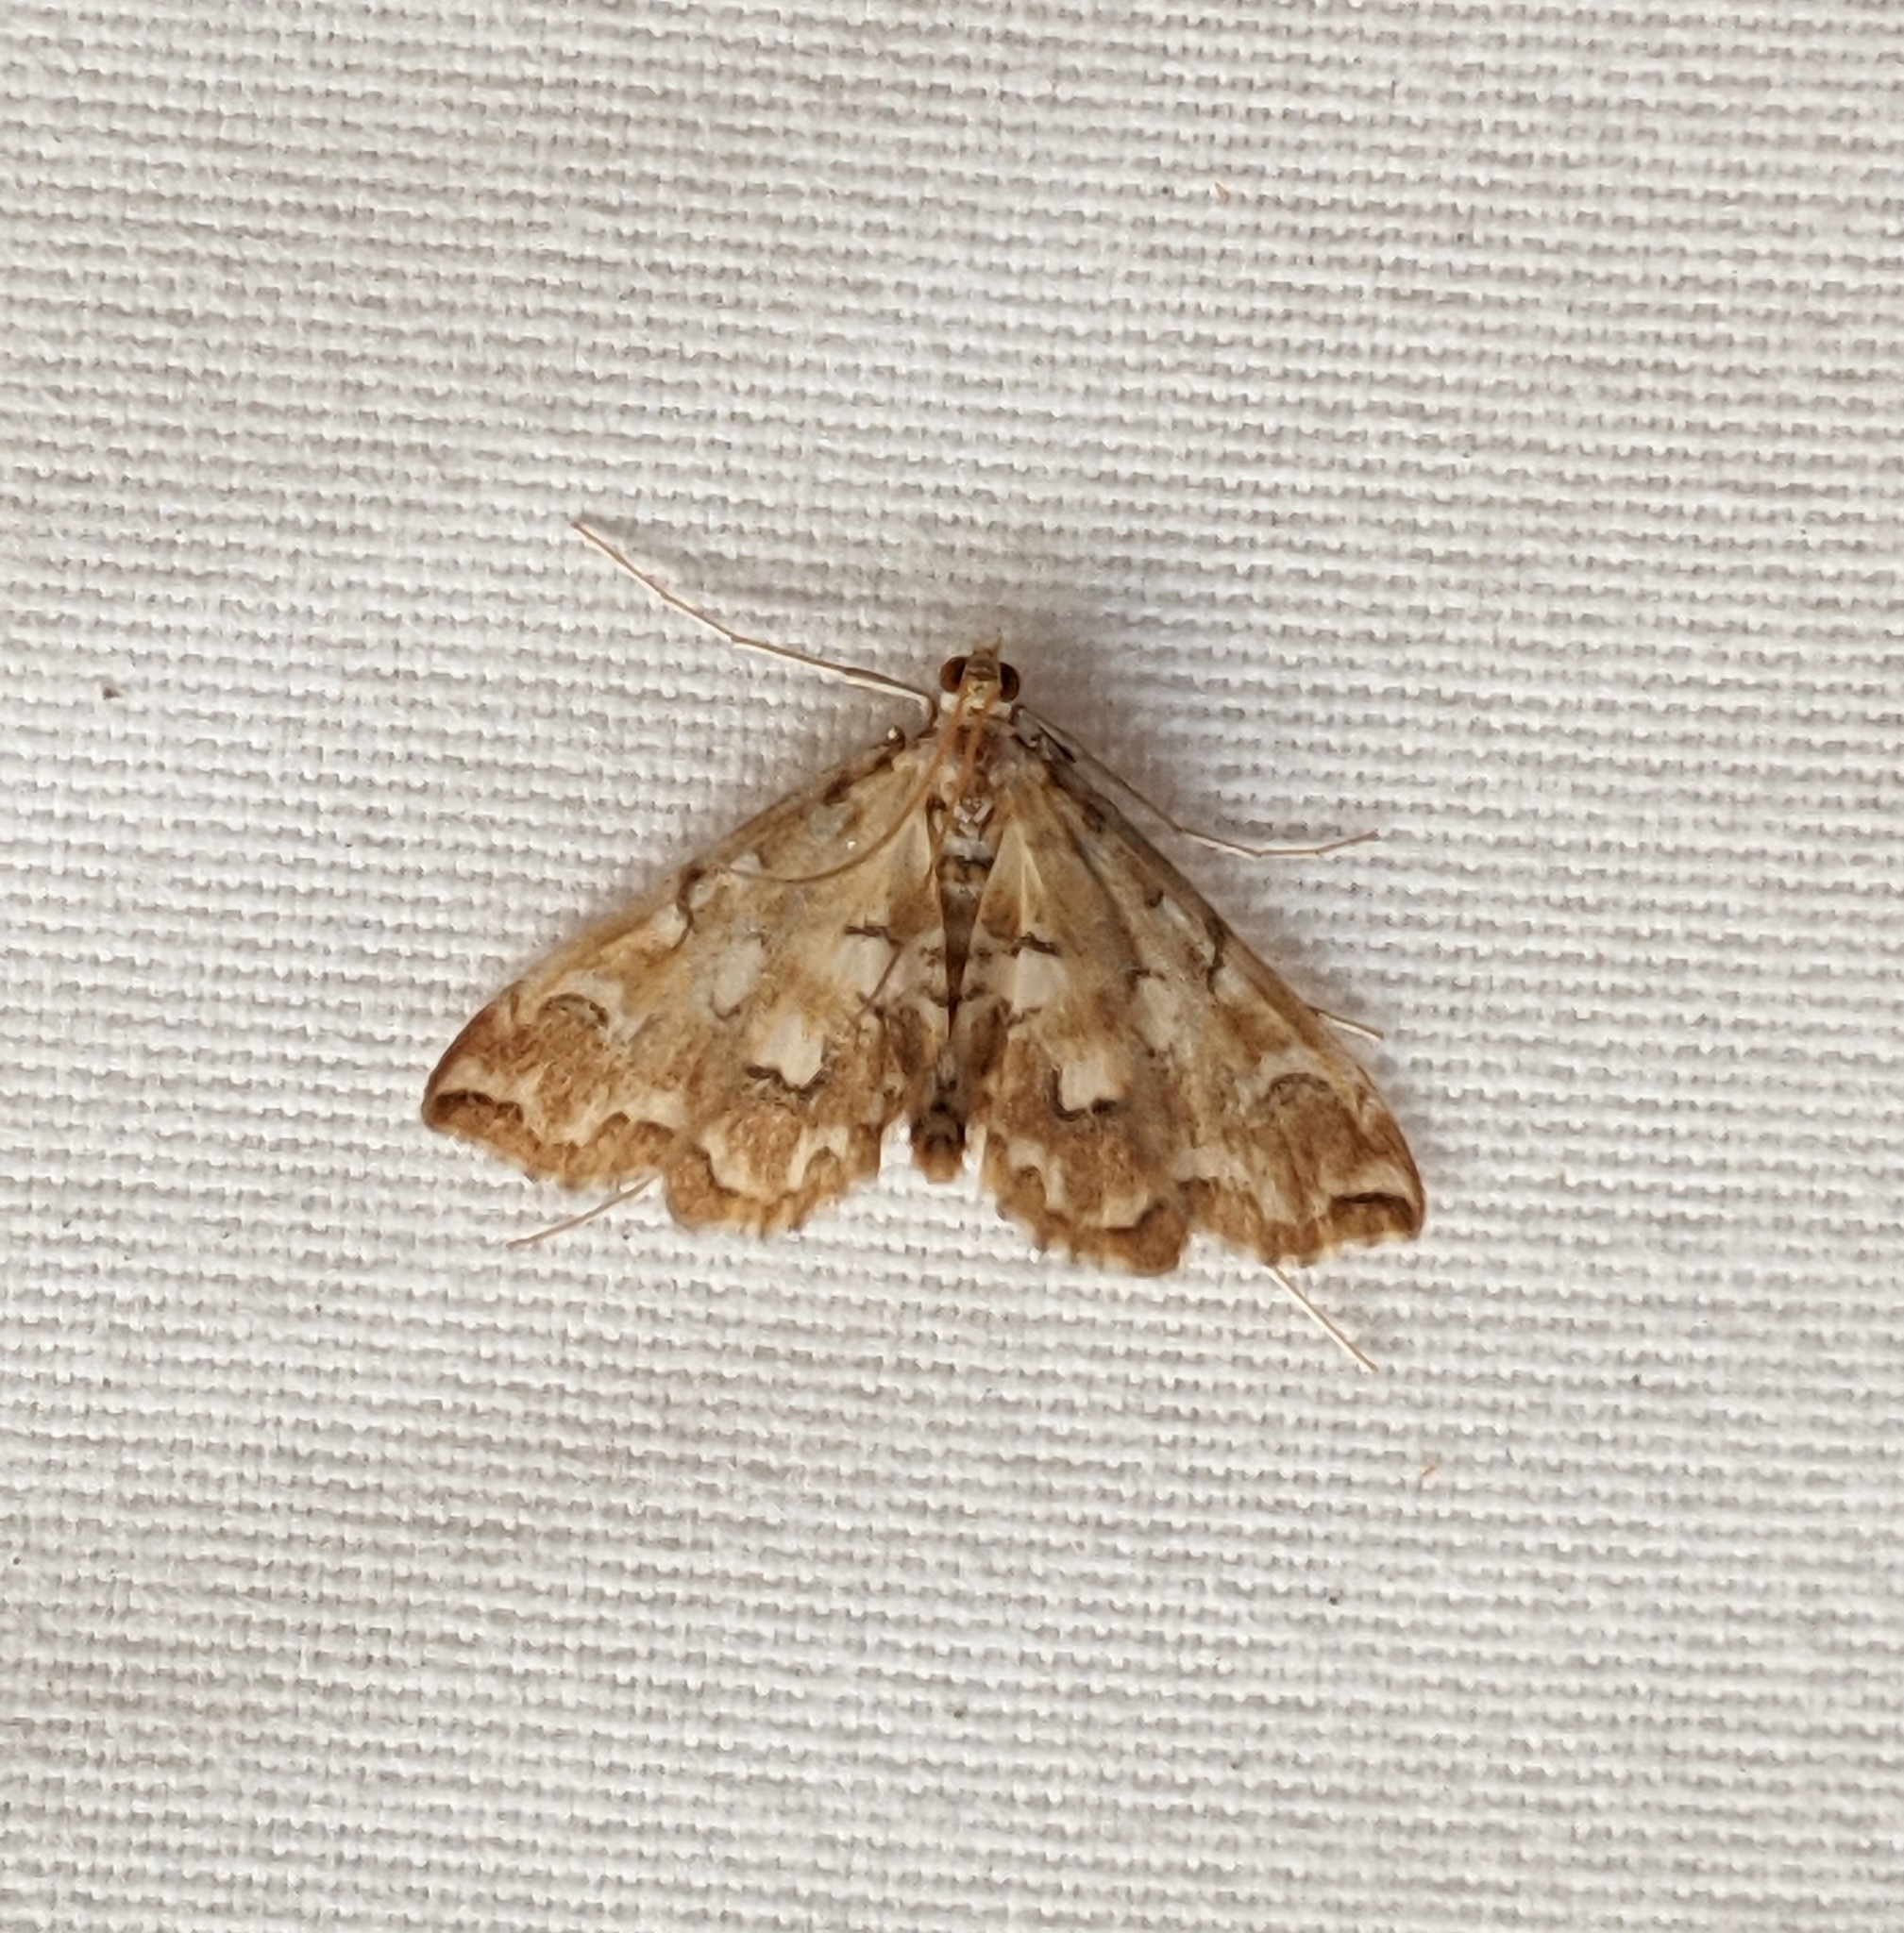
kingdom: Animalia
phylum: Arthropoda
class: Insecta
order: Lepidoptera
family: Crambidae
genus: Elophila
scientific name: Elophila icciusalis
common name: Pondside pyralid moth
